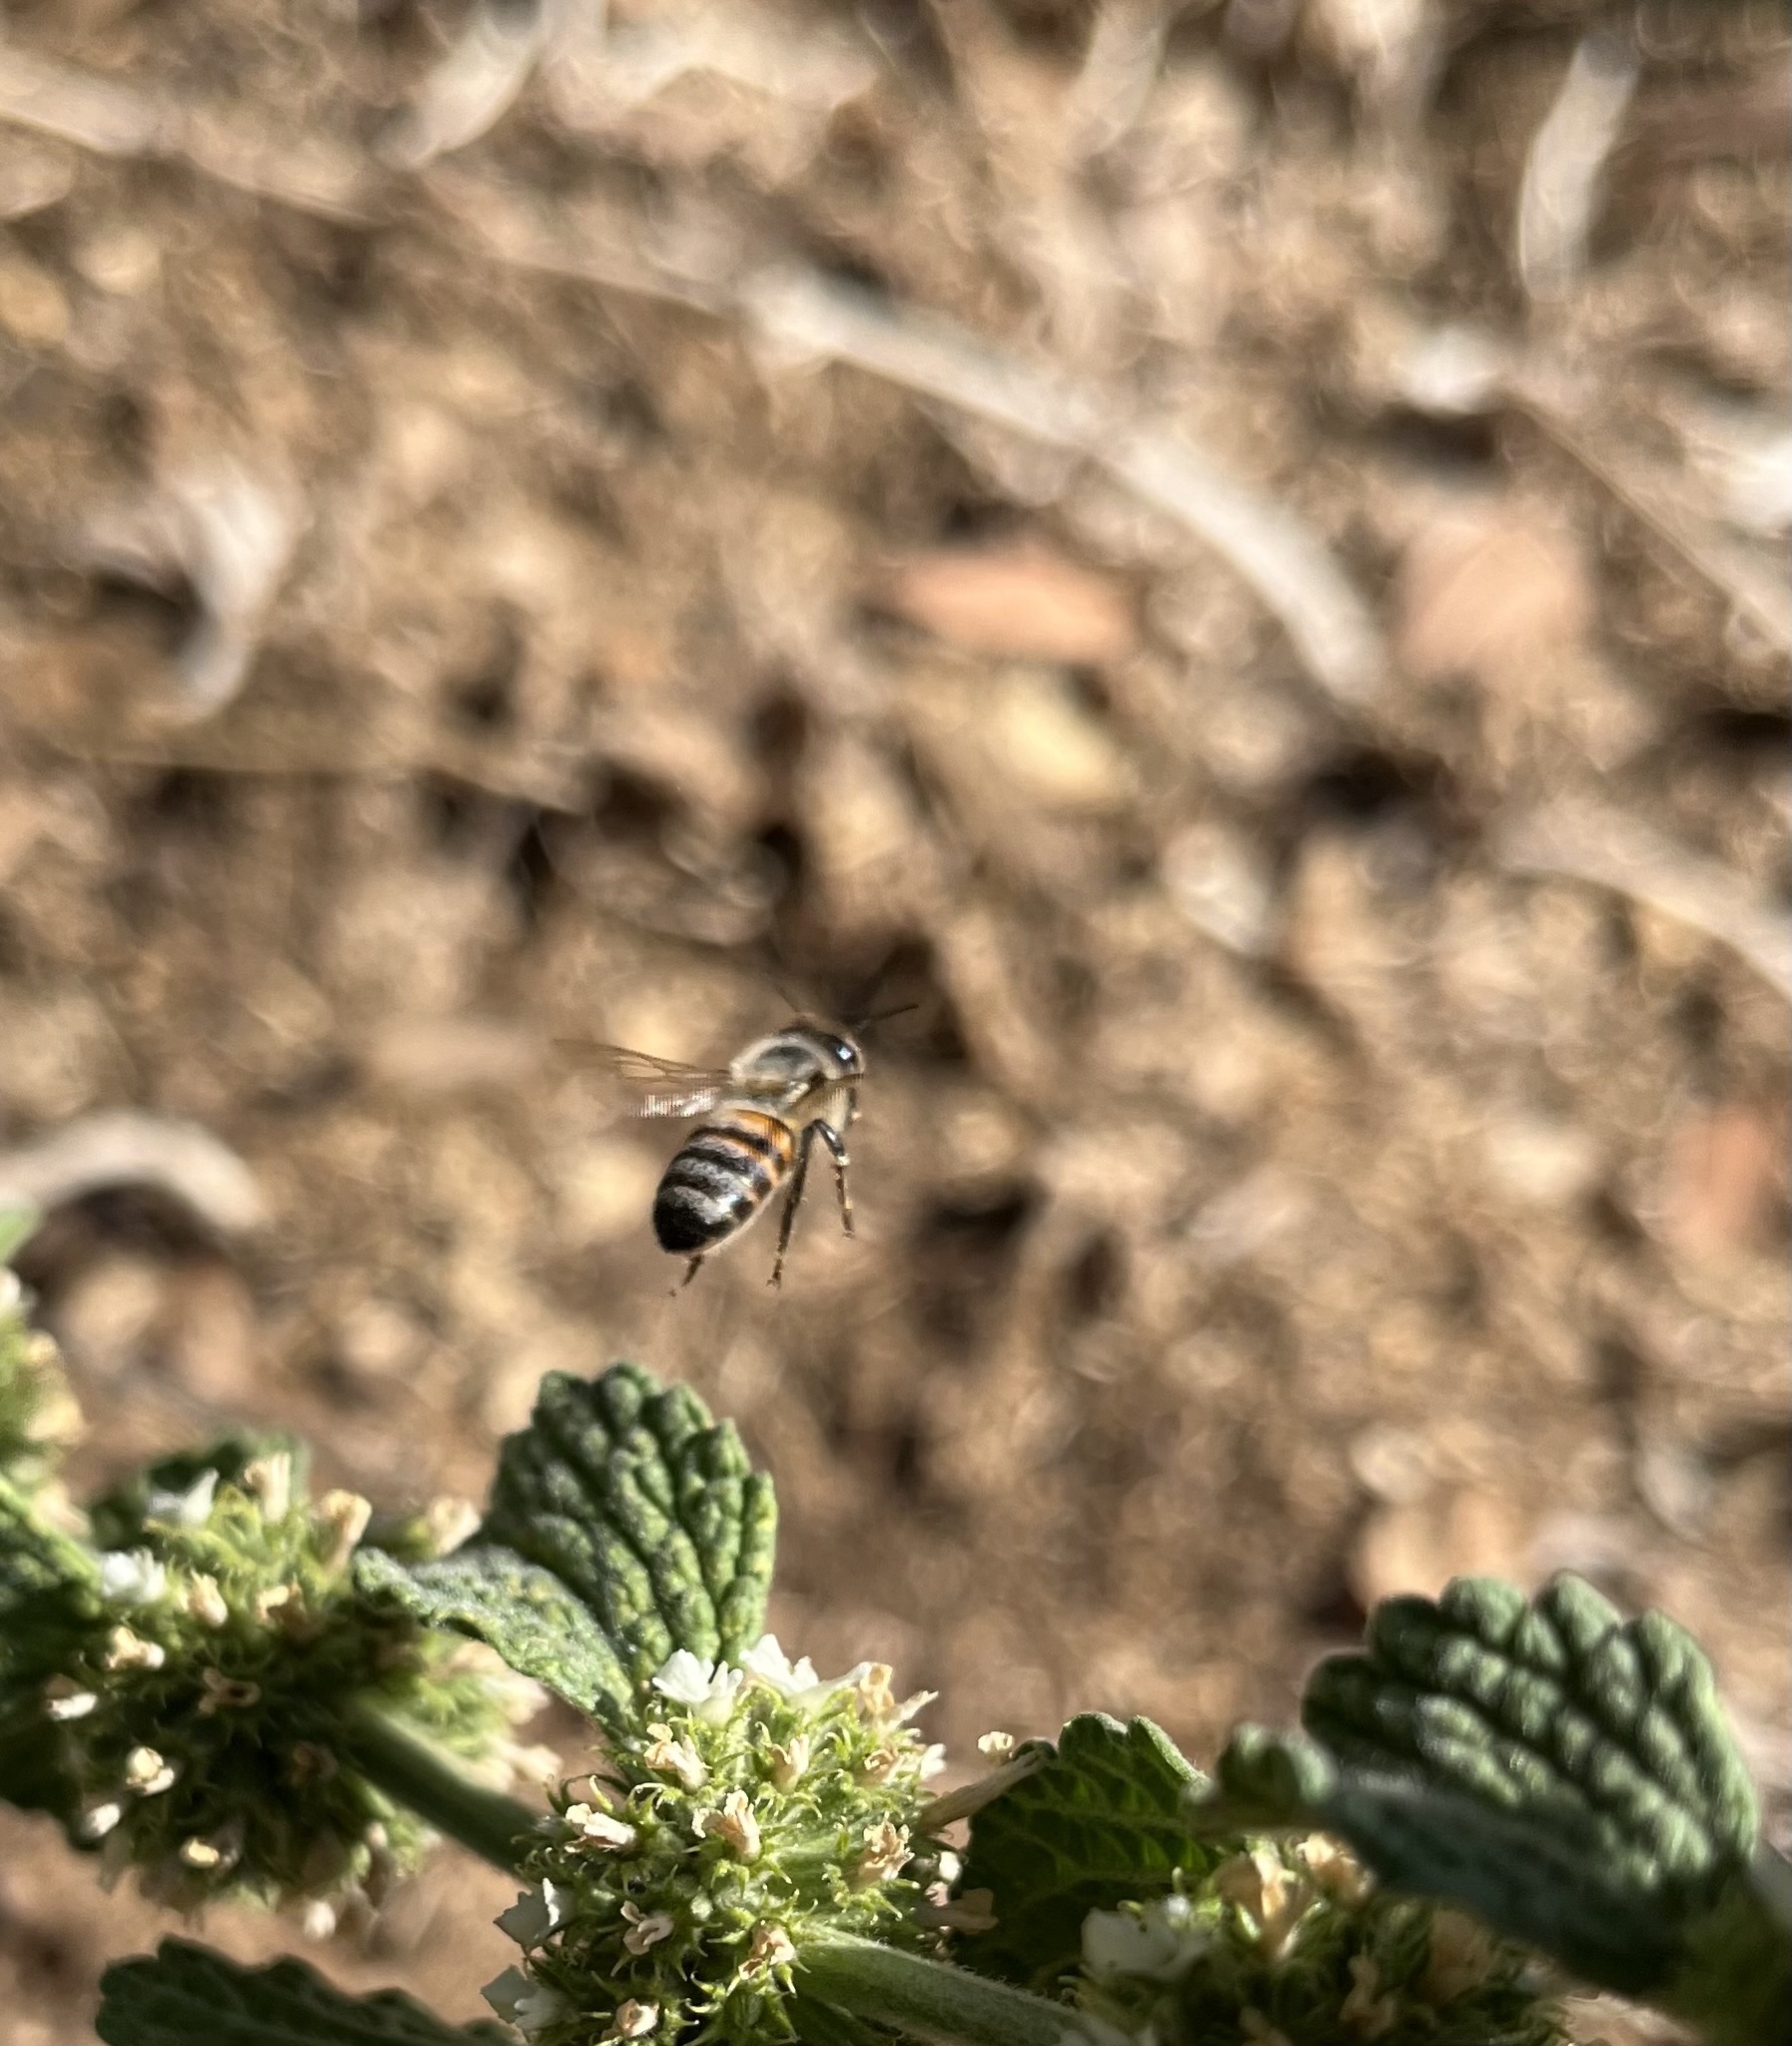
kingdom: Animalia
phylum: Arthropoda
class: Insecta
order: Hymenoptera
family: Apidae
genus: Apis
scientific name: Apis mellifera
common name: Honey bee
